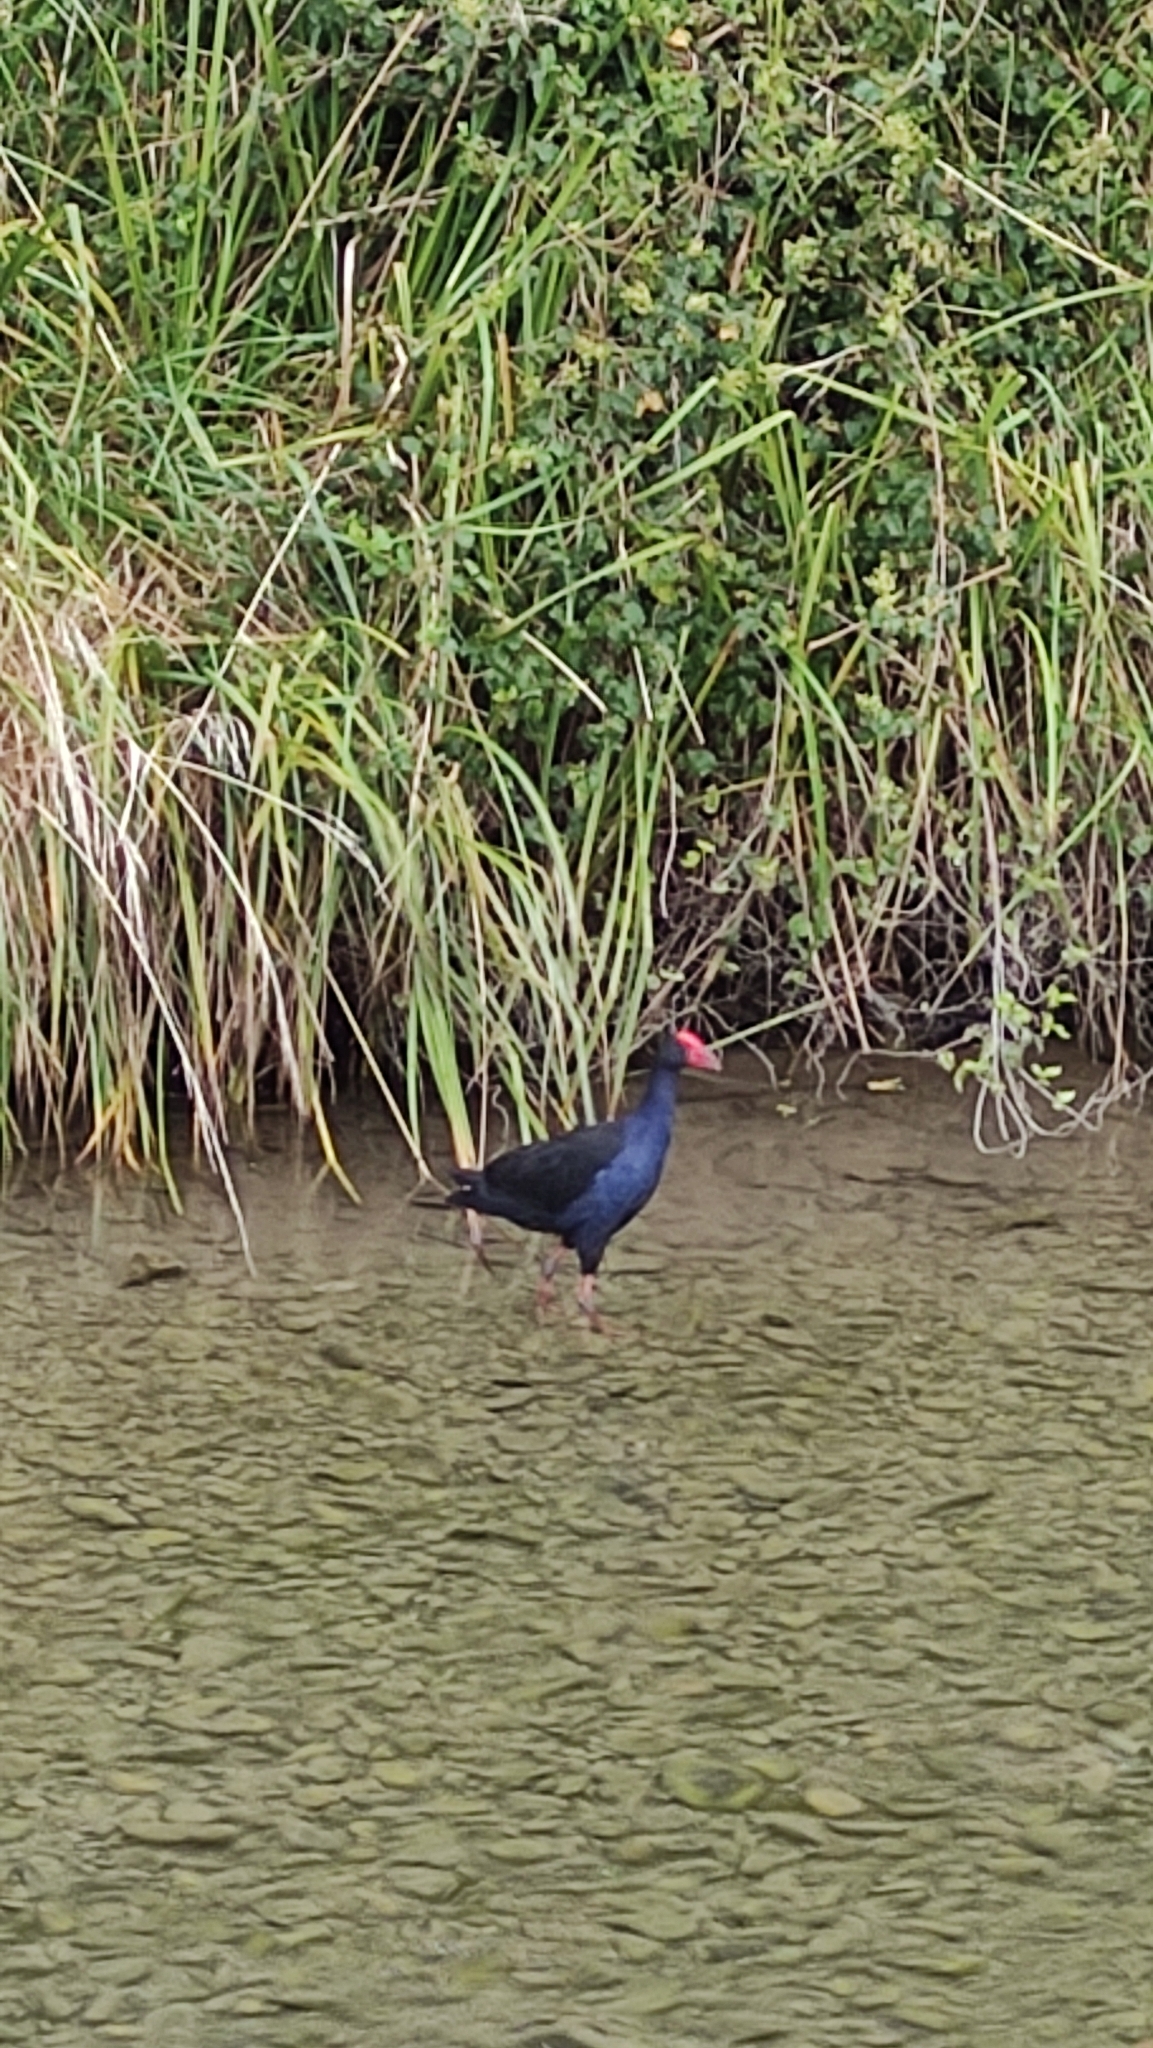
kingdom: Animalia
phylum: Chordata
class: Aves
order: Gruiformes
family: Rallidae
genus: Porphyrio
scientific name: Porphyrio melanotus
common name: Australasian swamphen
